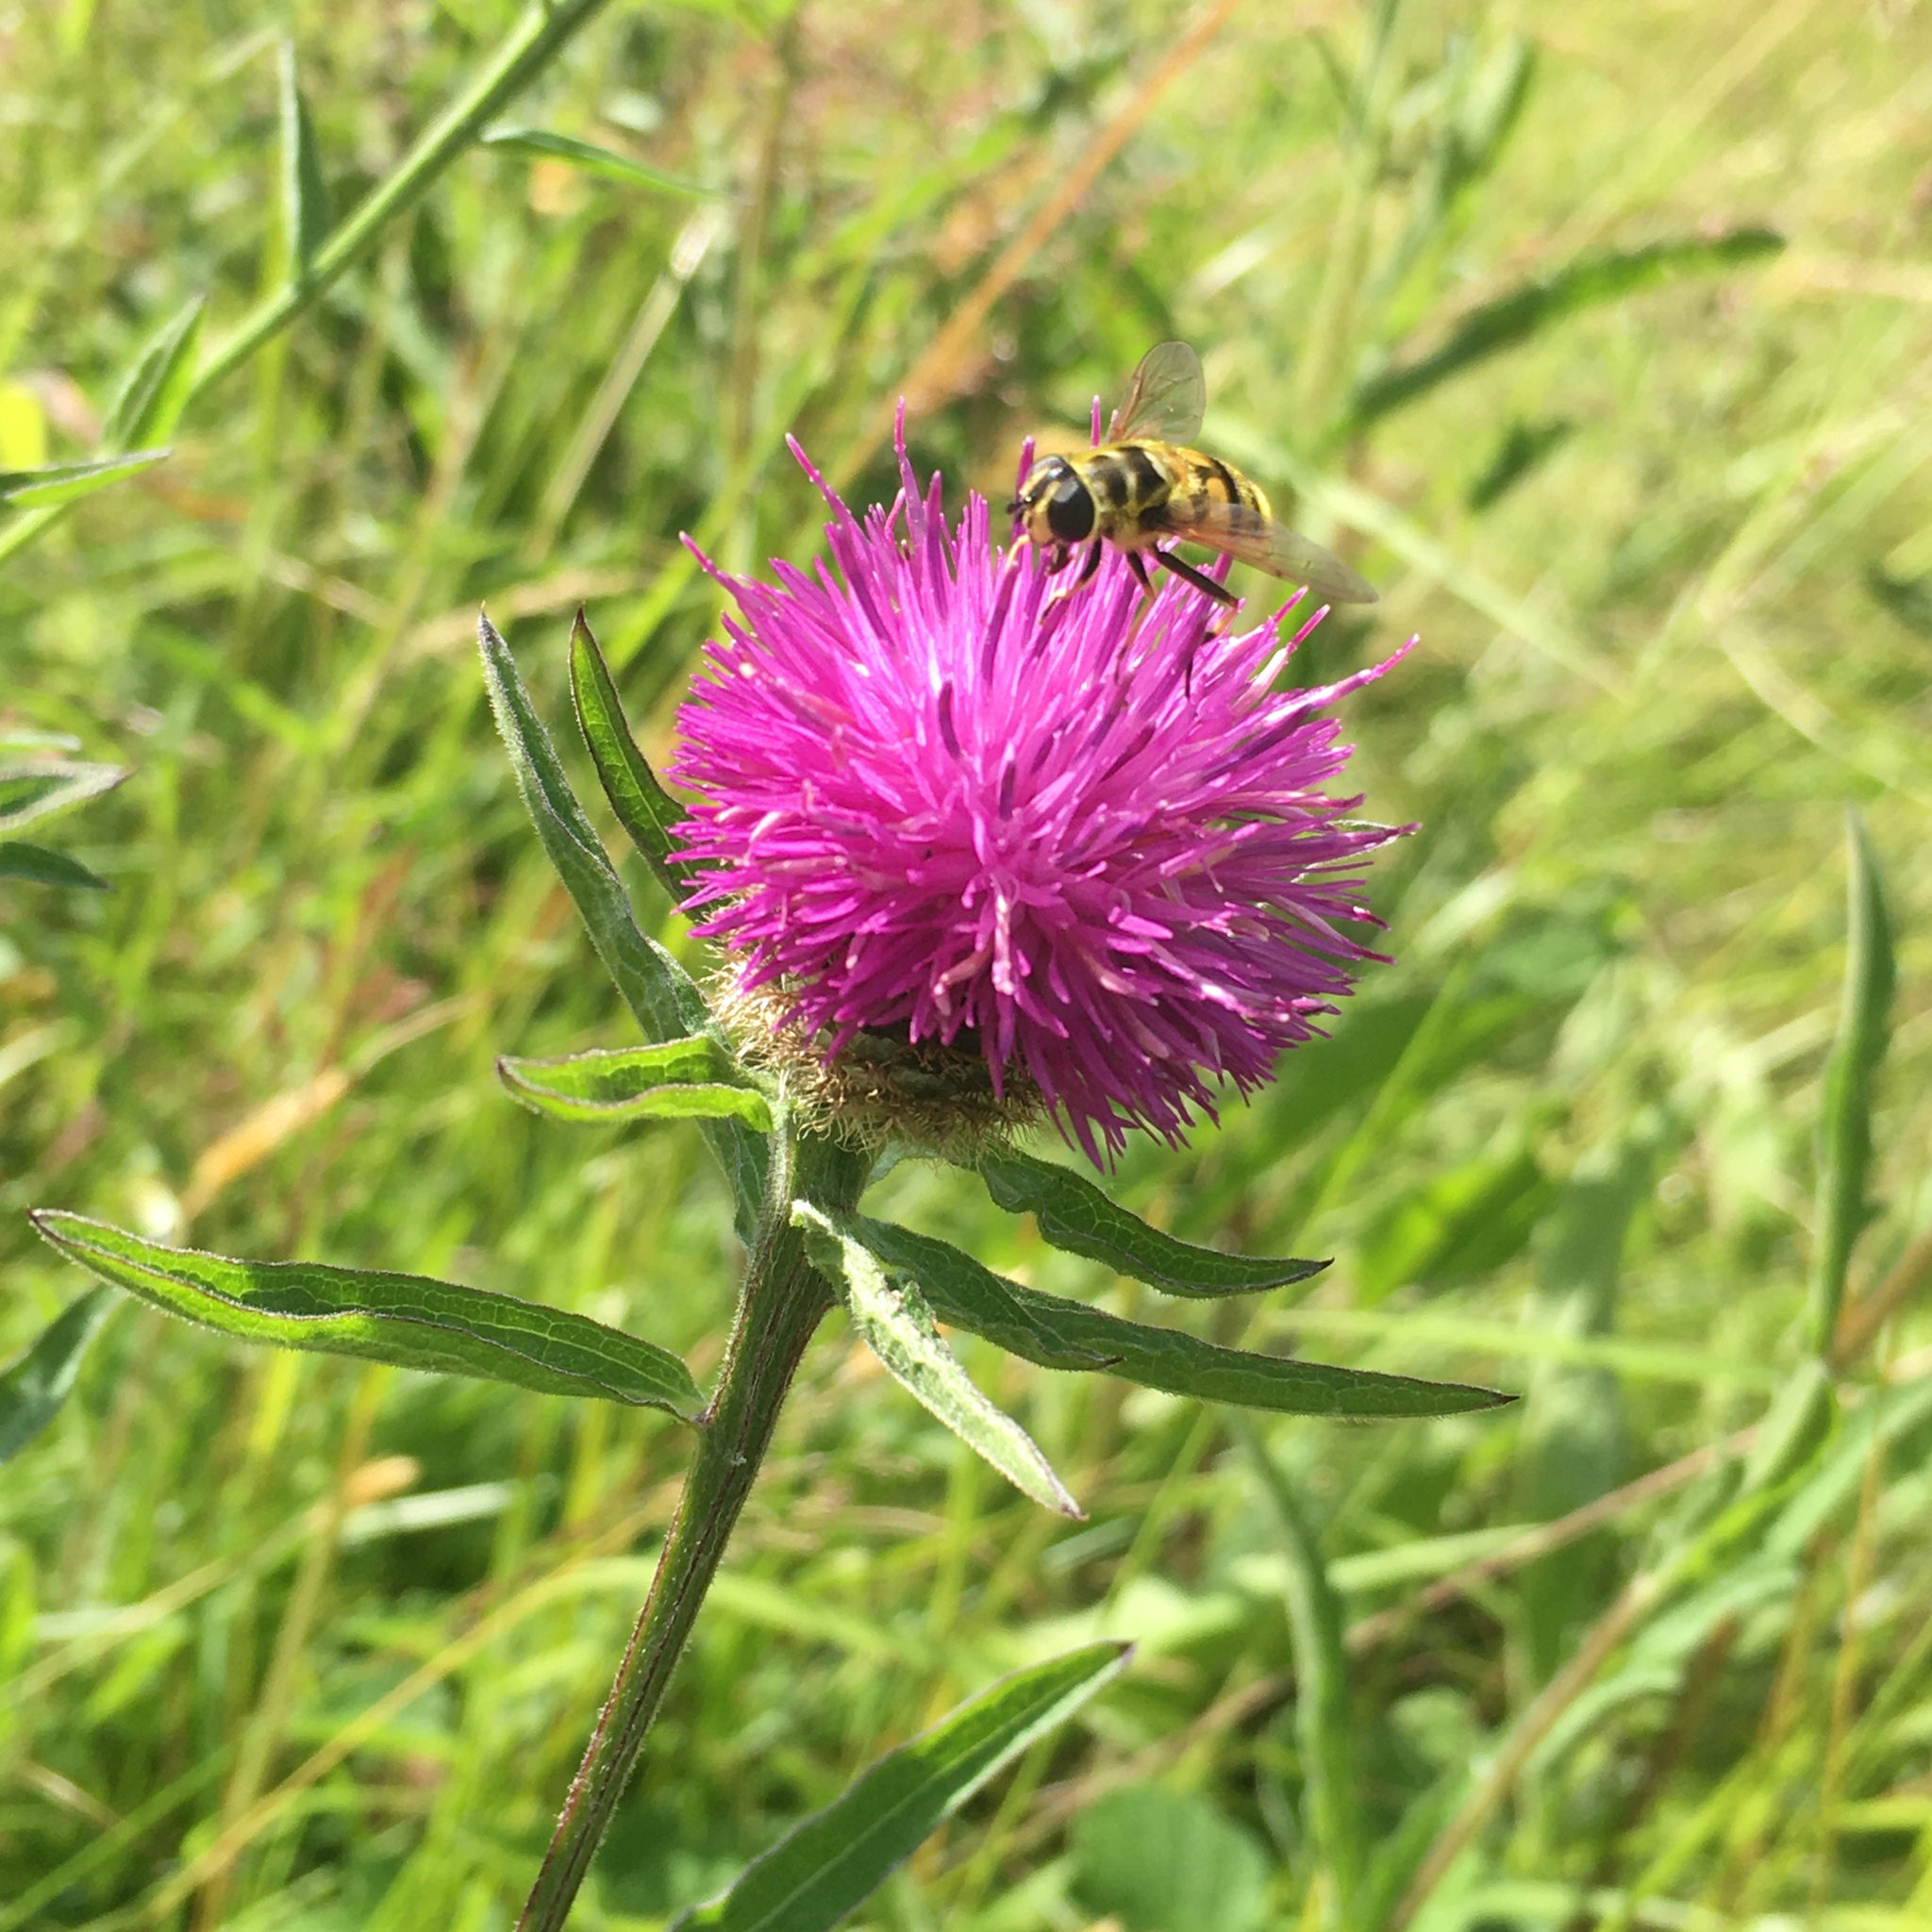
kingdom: Animalia
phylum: Arthropoda
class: Insecta
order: Diptera
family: Syrphidae
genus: Myathropa
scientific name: Myathropa florea
